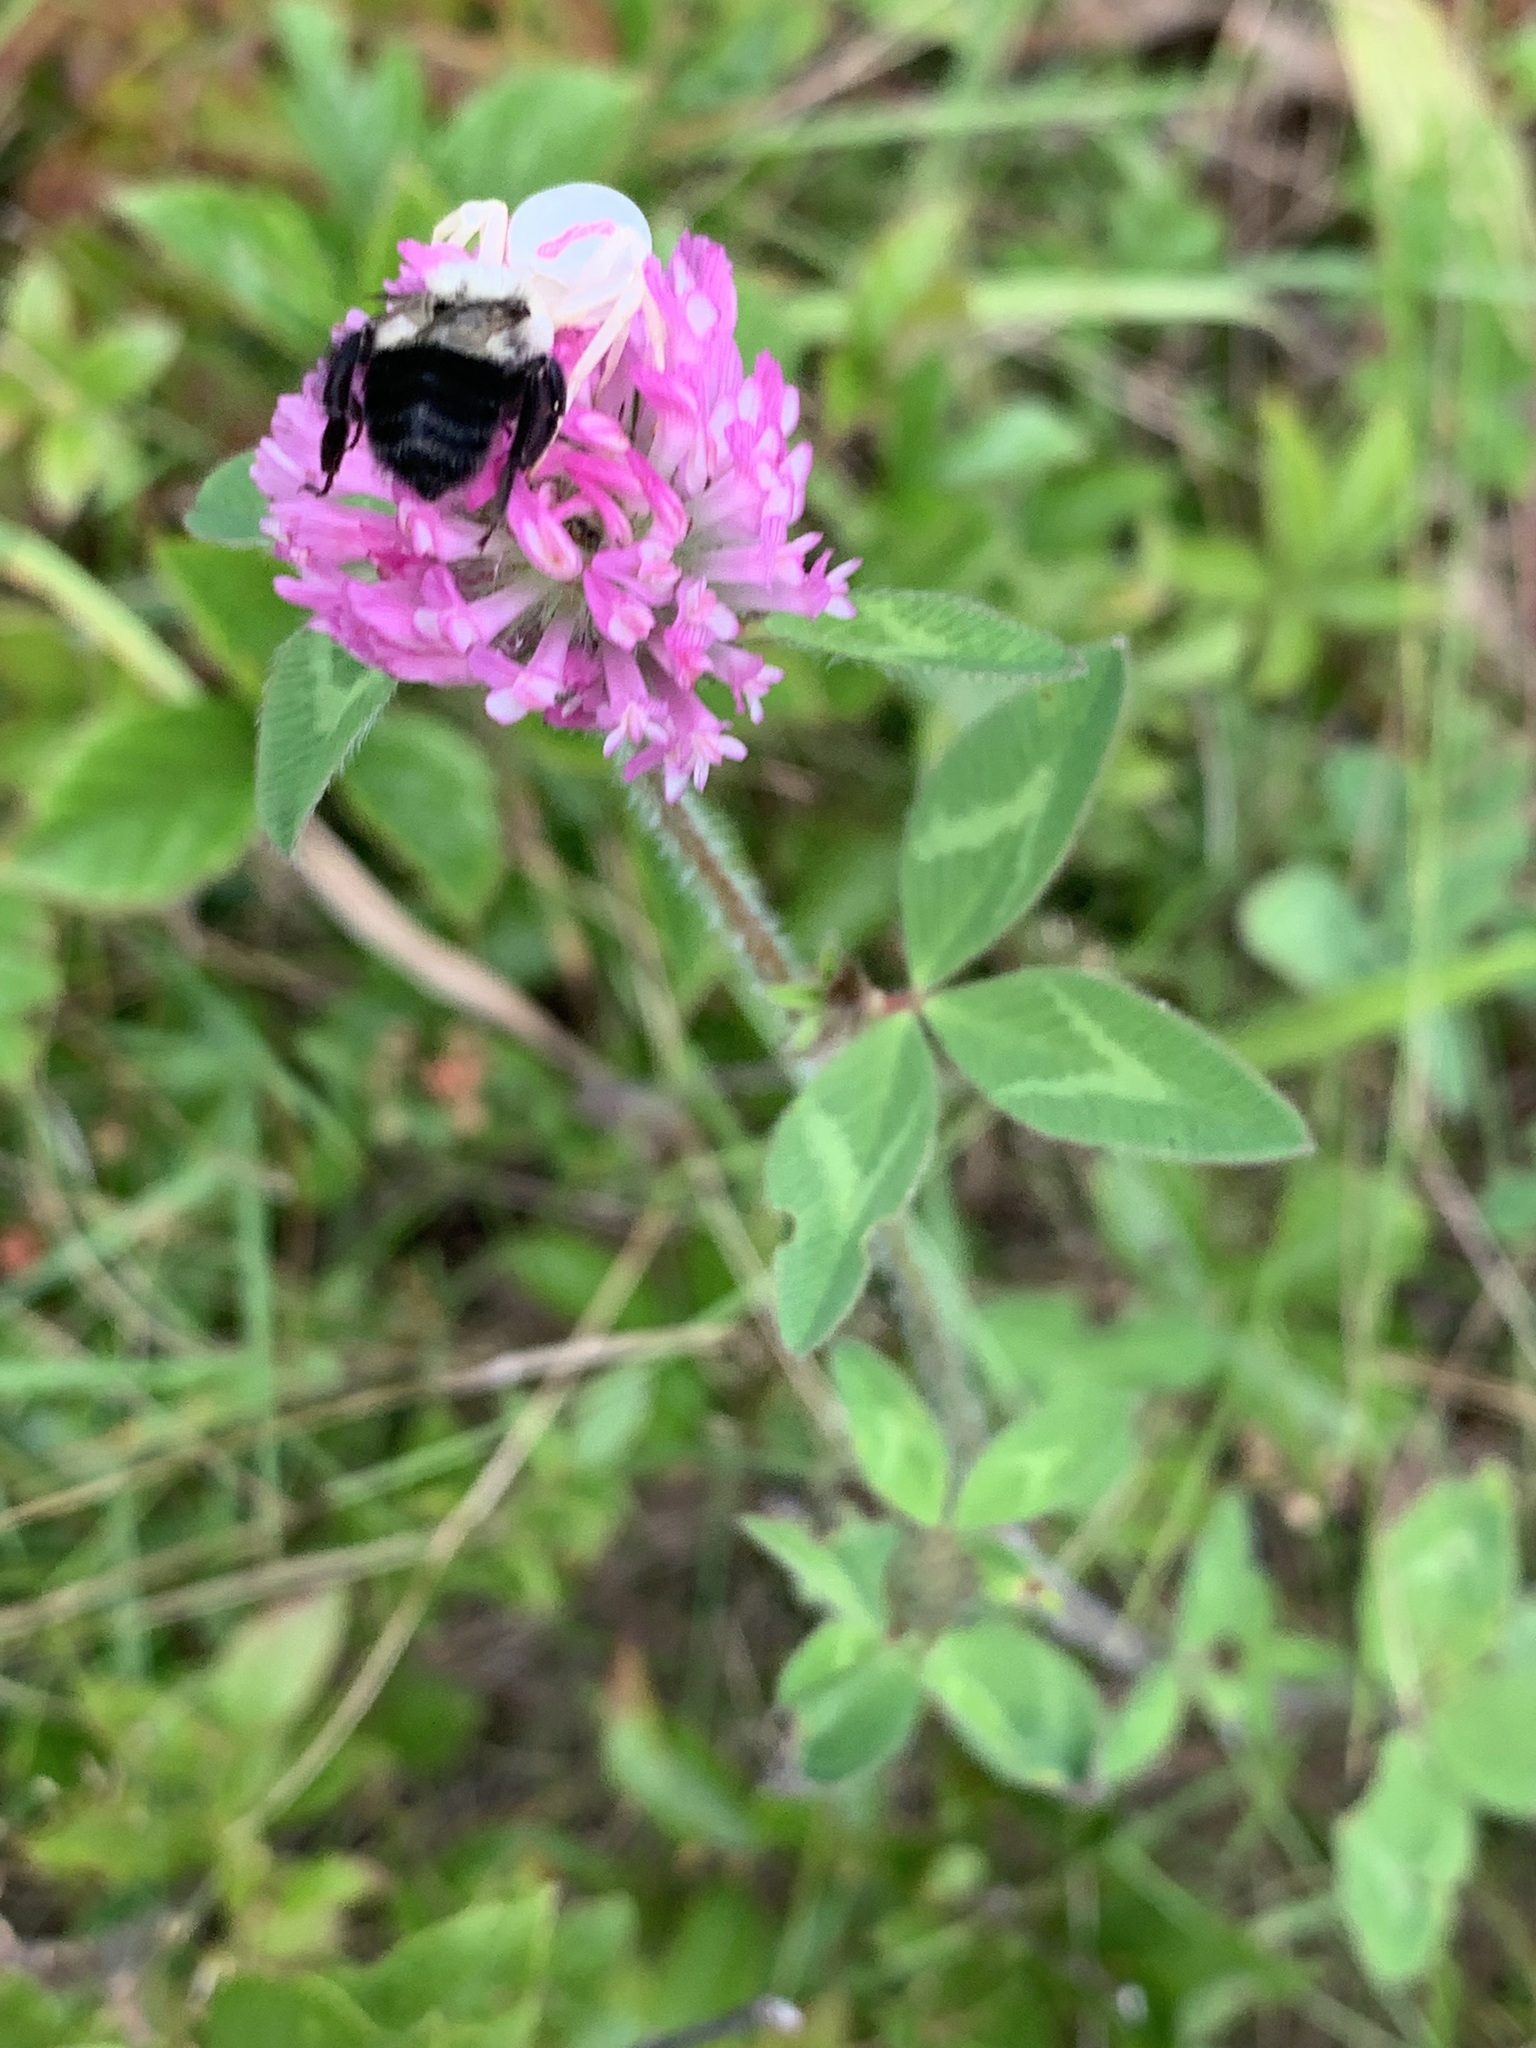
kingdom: Plantae
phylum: Tracheophyta
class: Magnoliopsida
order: Fabales
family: Fabaceae
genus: Trifolium
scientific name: Trifolium pratense
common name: Red clover
